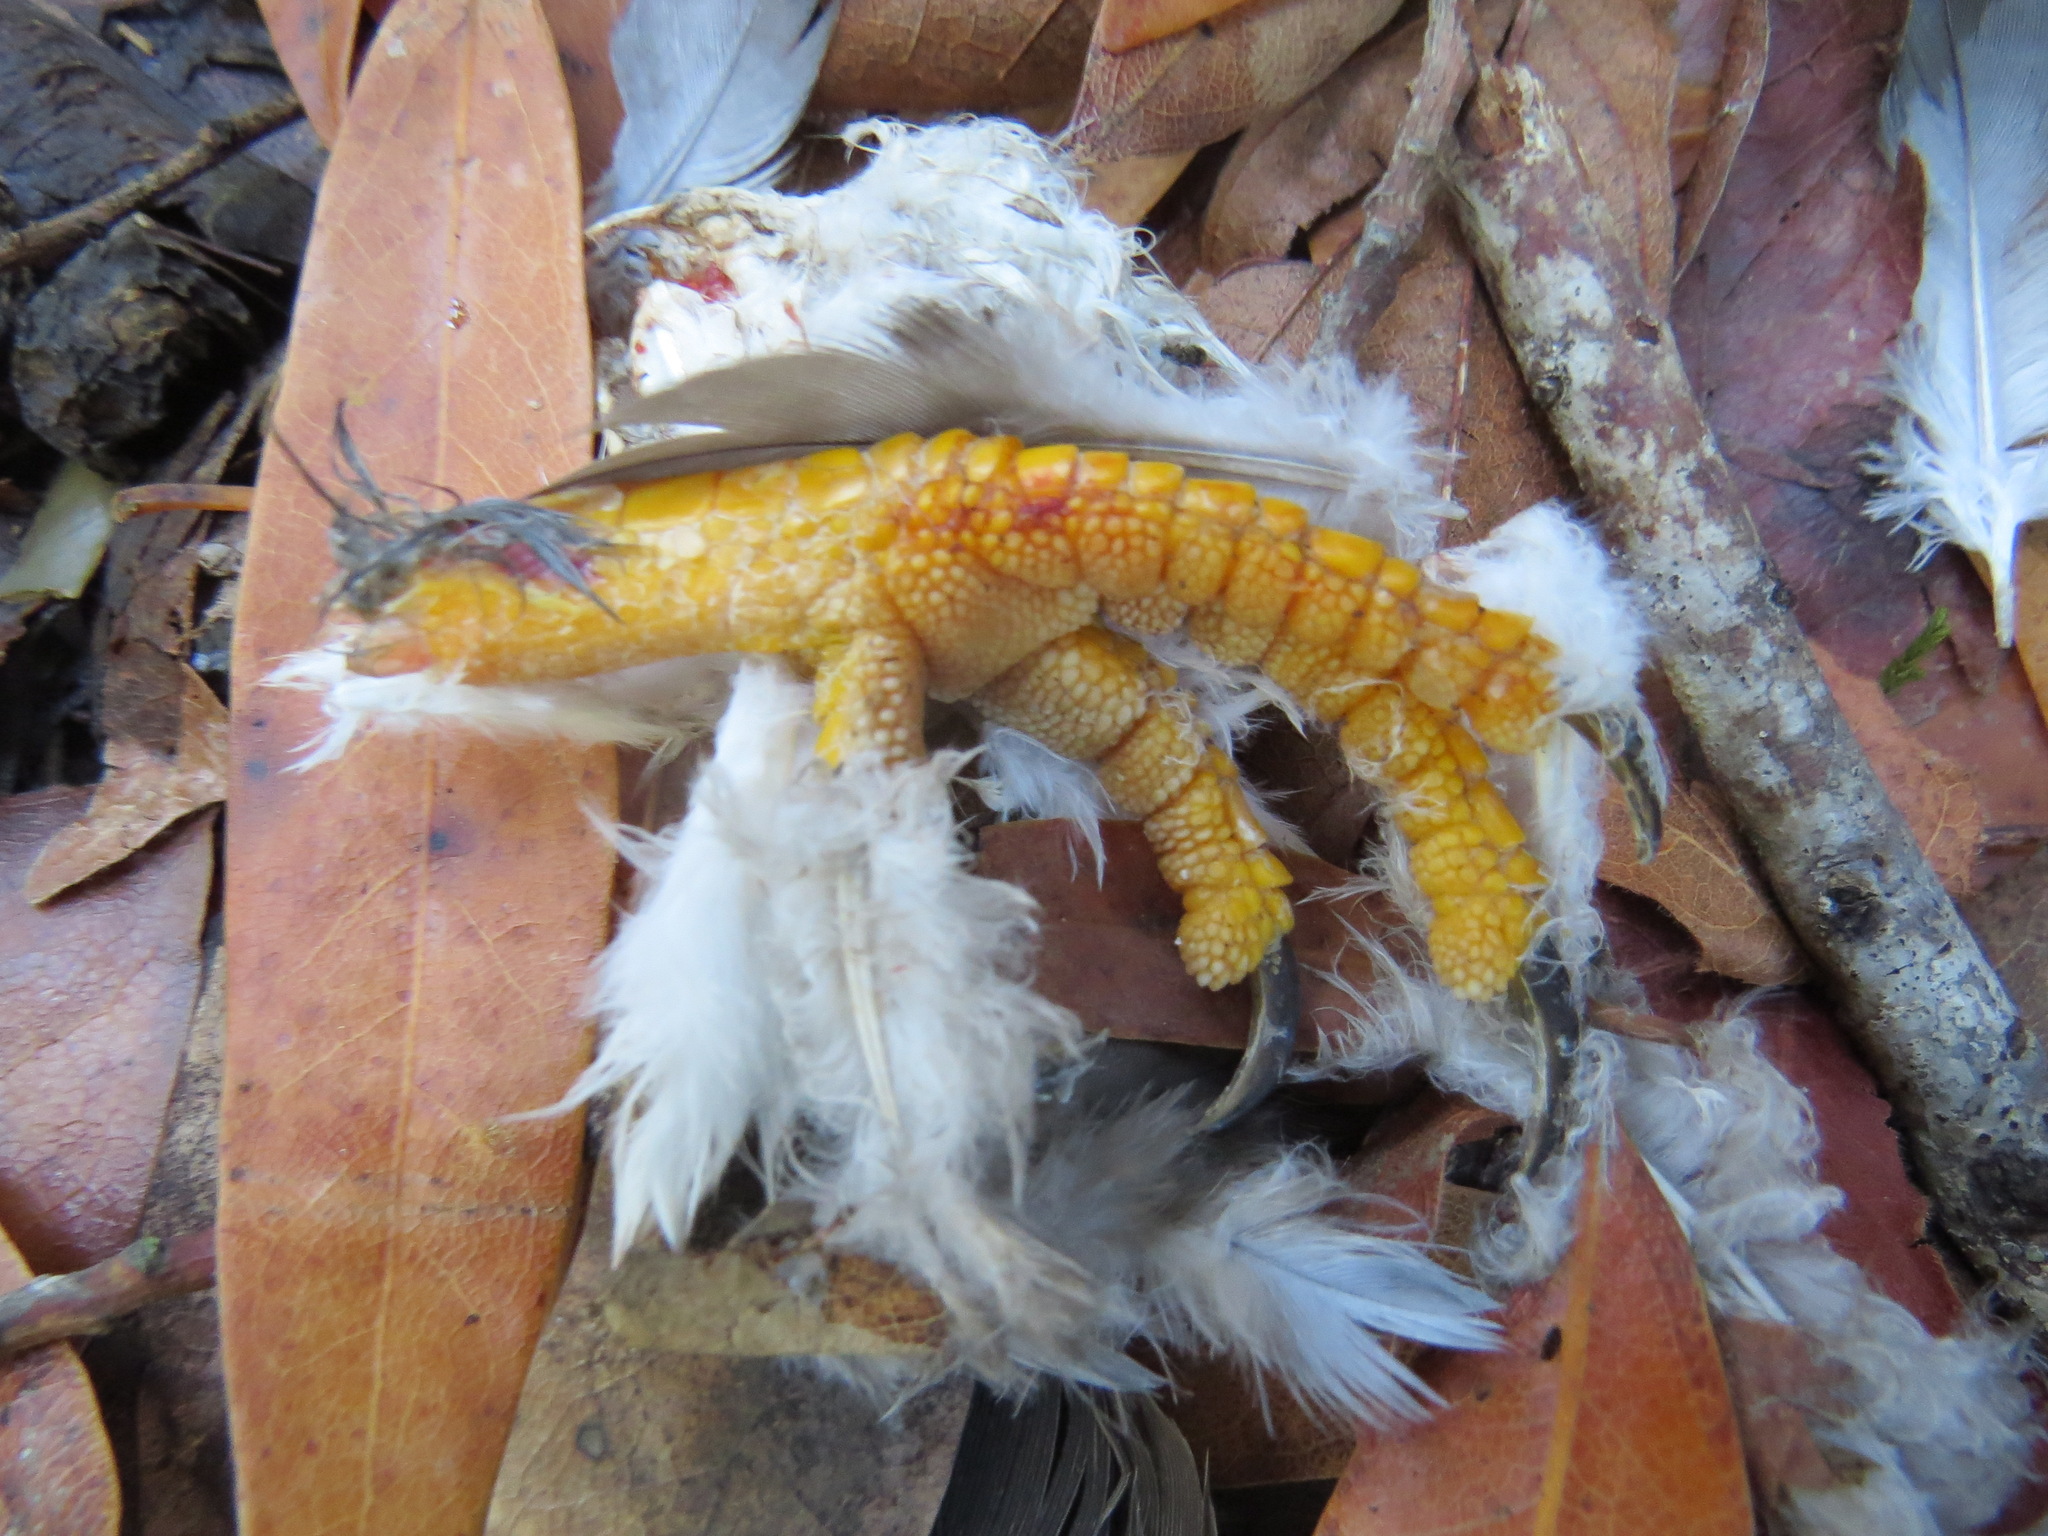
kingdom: Animalia
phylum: Chordata
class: Aves
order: Columbiformes
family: Columbidae
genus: Patagioenas
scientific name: Patagioenas fasciata
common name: Band-tailed pigeon
